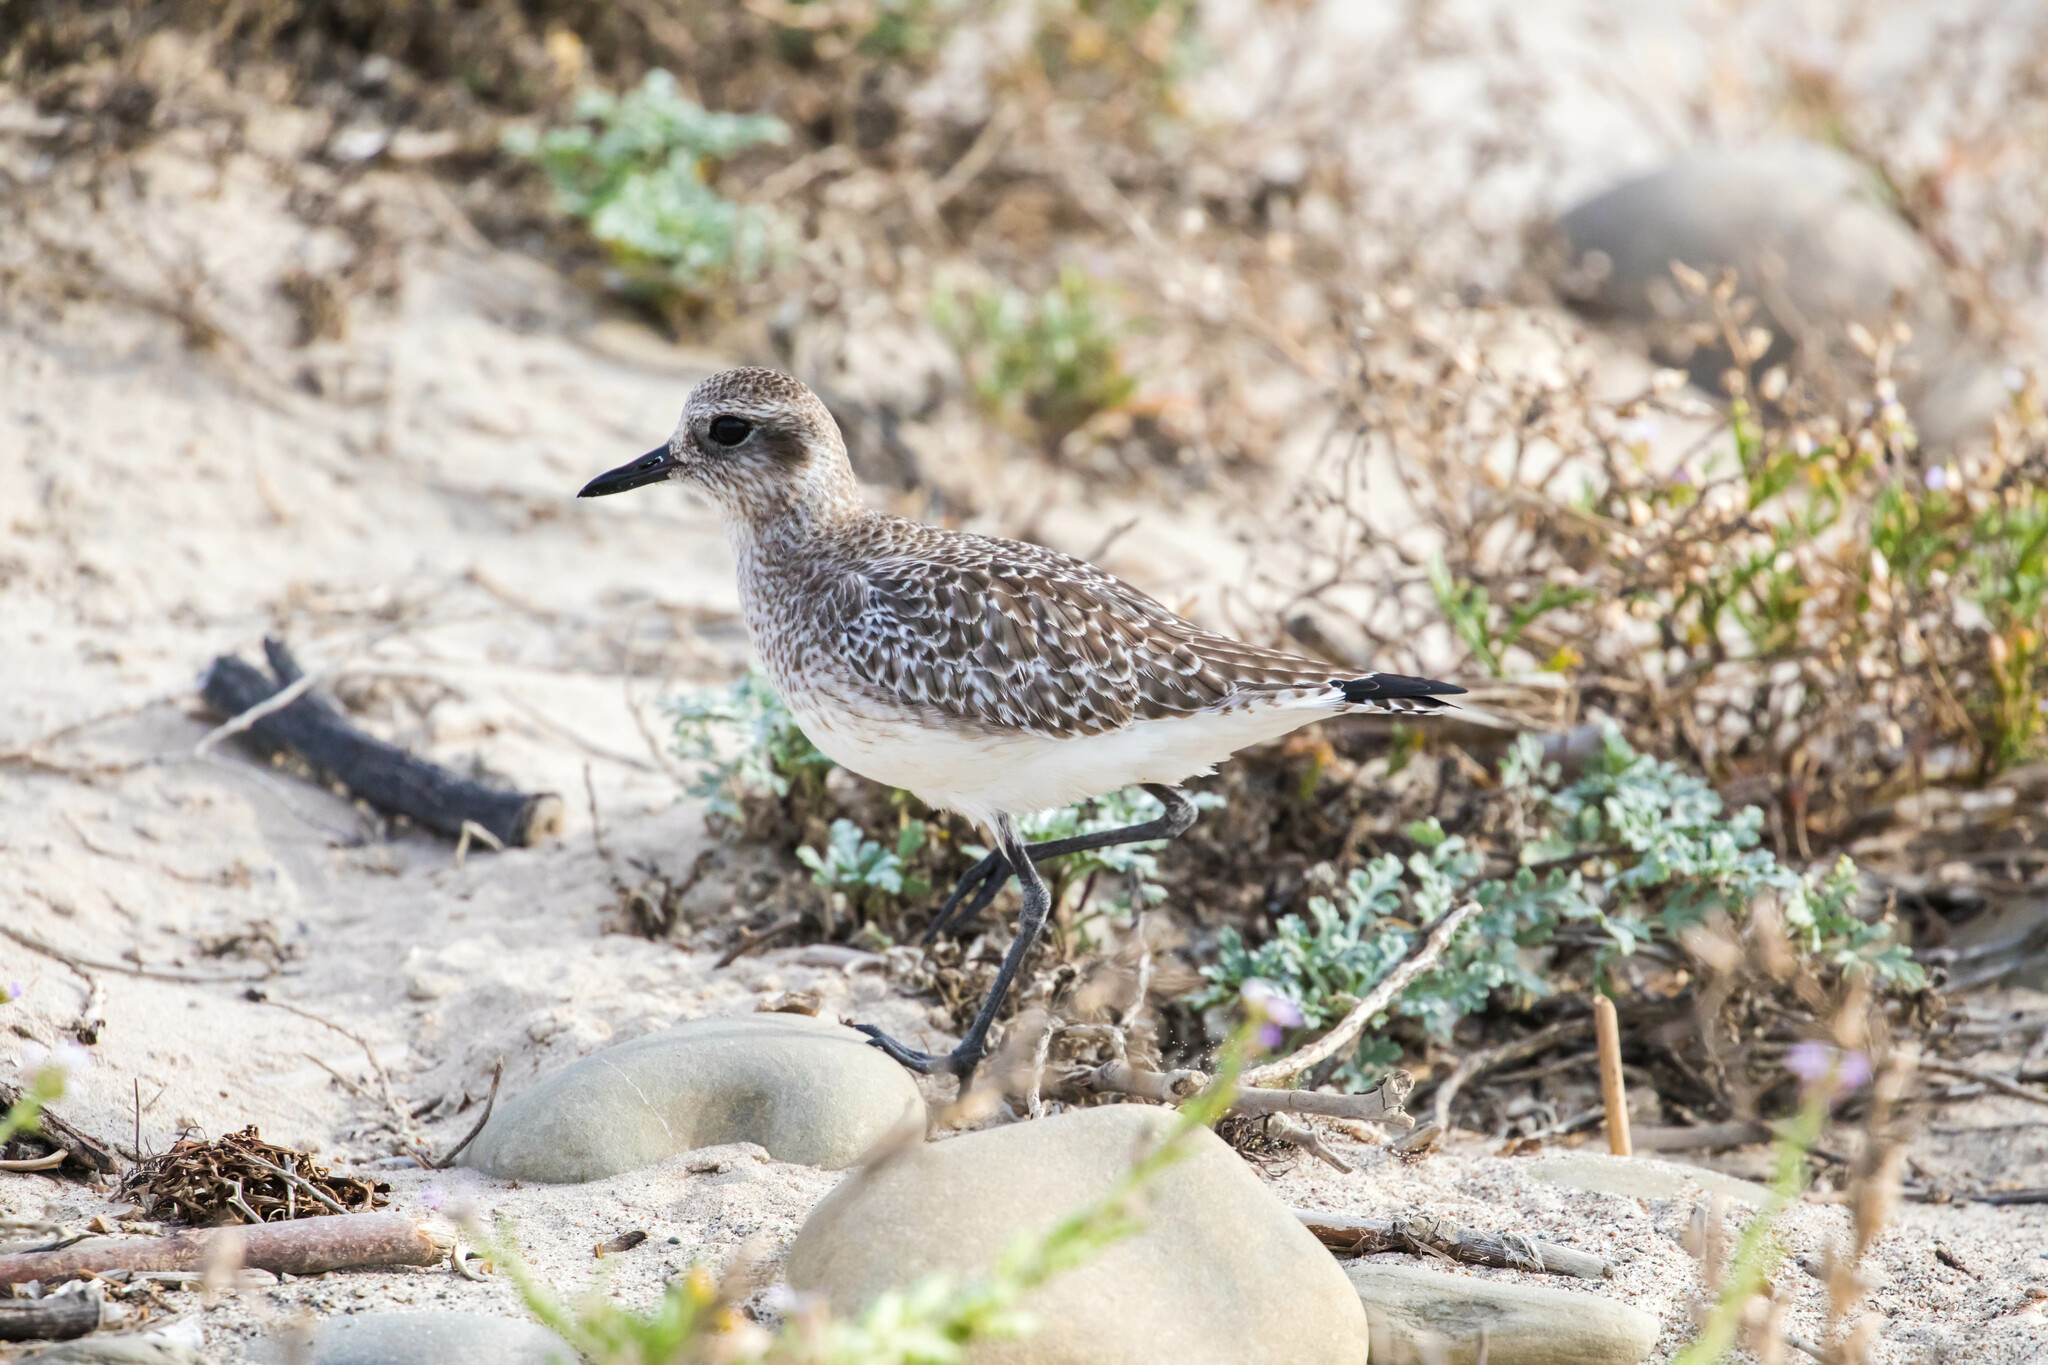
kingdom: Animalia
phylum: Chordata
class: Aves
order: Charadriiformes
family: Charadriidae
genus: Pluvialis
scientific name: Pluvialis squatarola
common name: Grey plover
